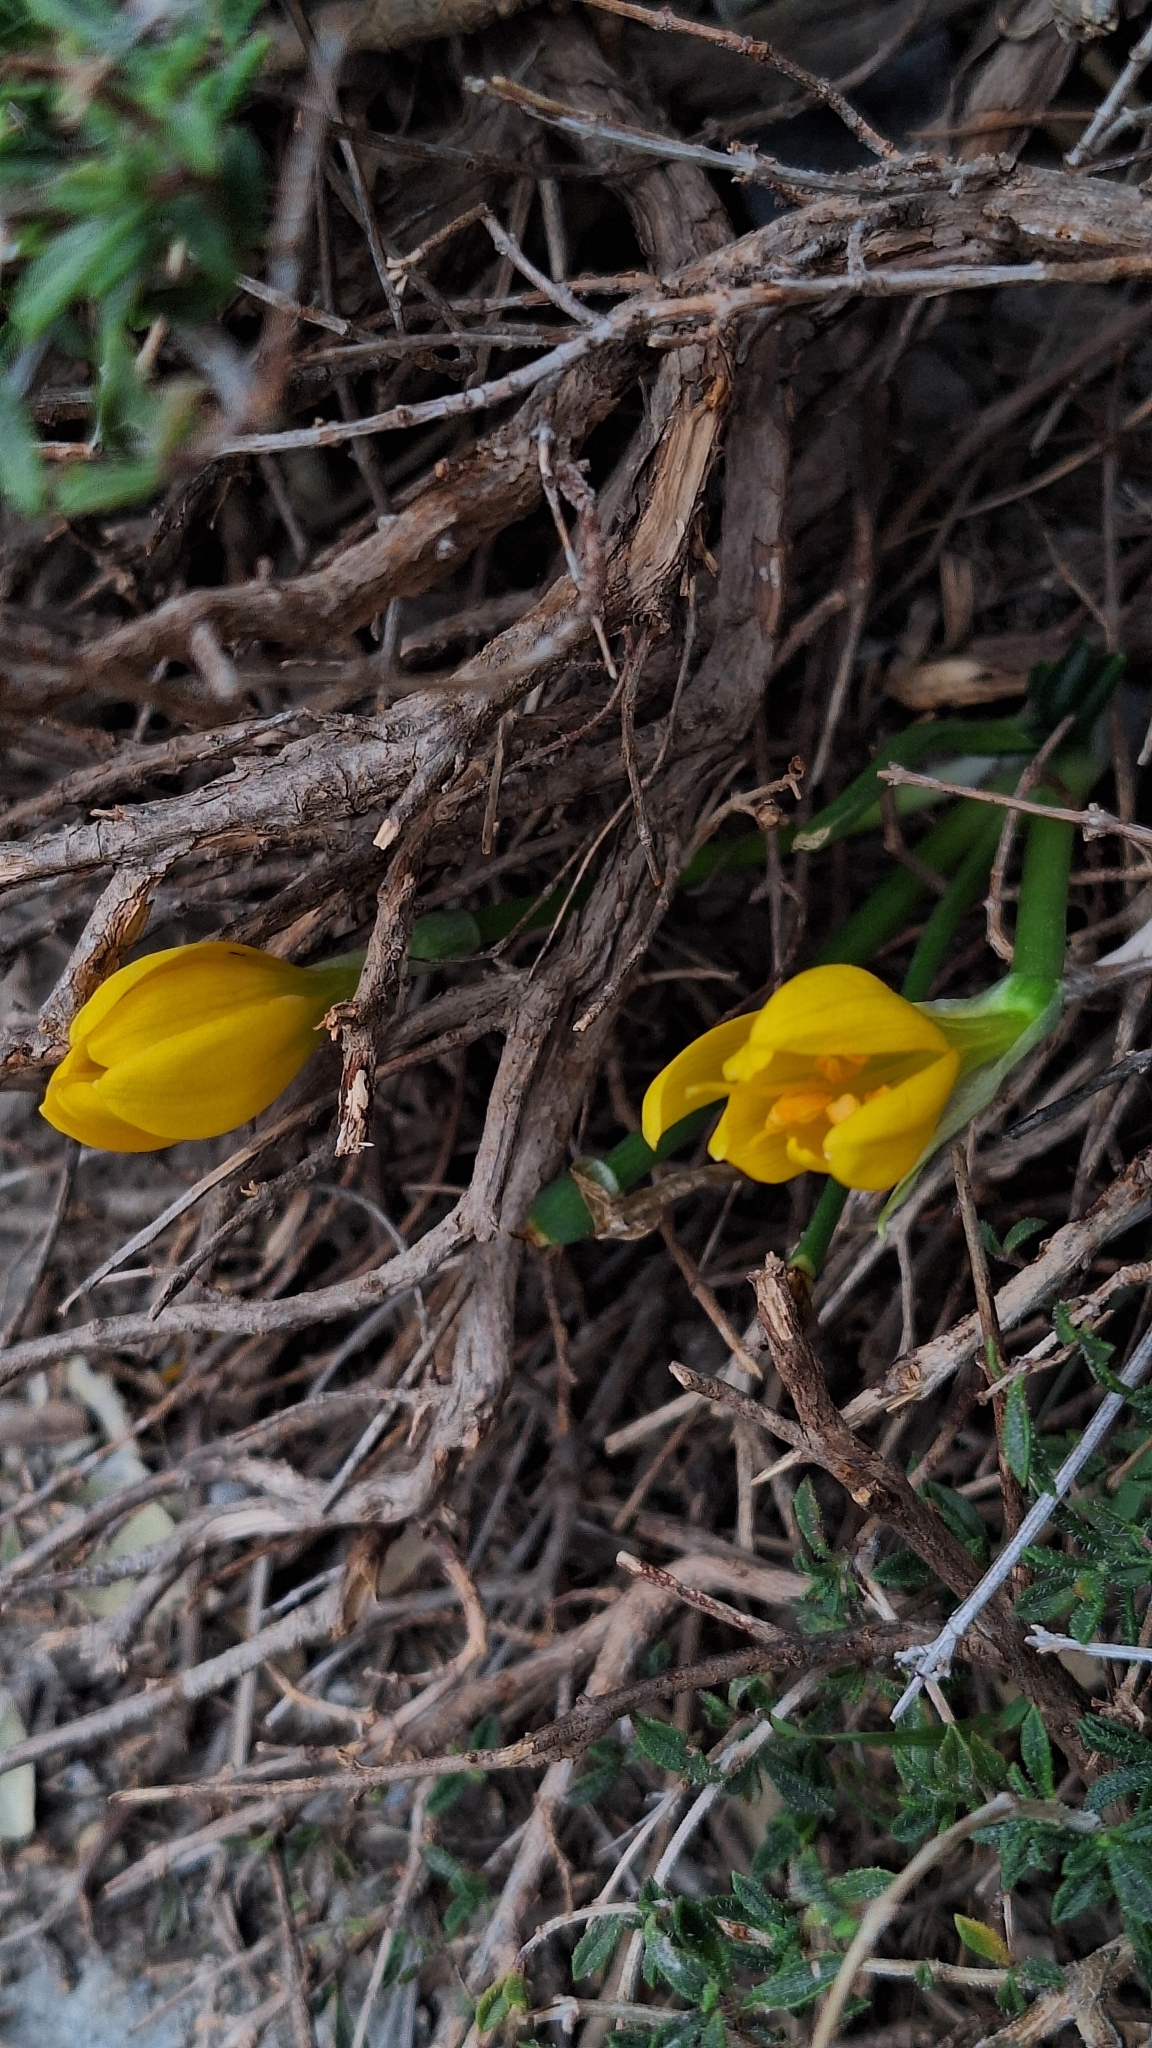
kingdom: Plantae
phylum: Tracheophyta
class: Liliopsida
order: Asparagales
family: Amaryllidaceae
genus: Sternbergia
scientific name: Sternbergia lutea
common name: Winter daffodil
